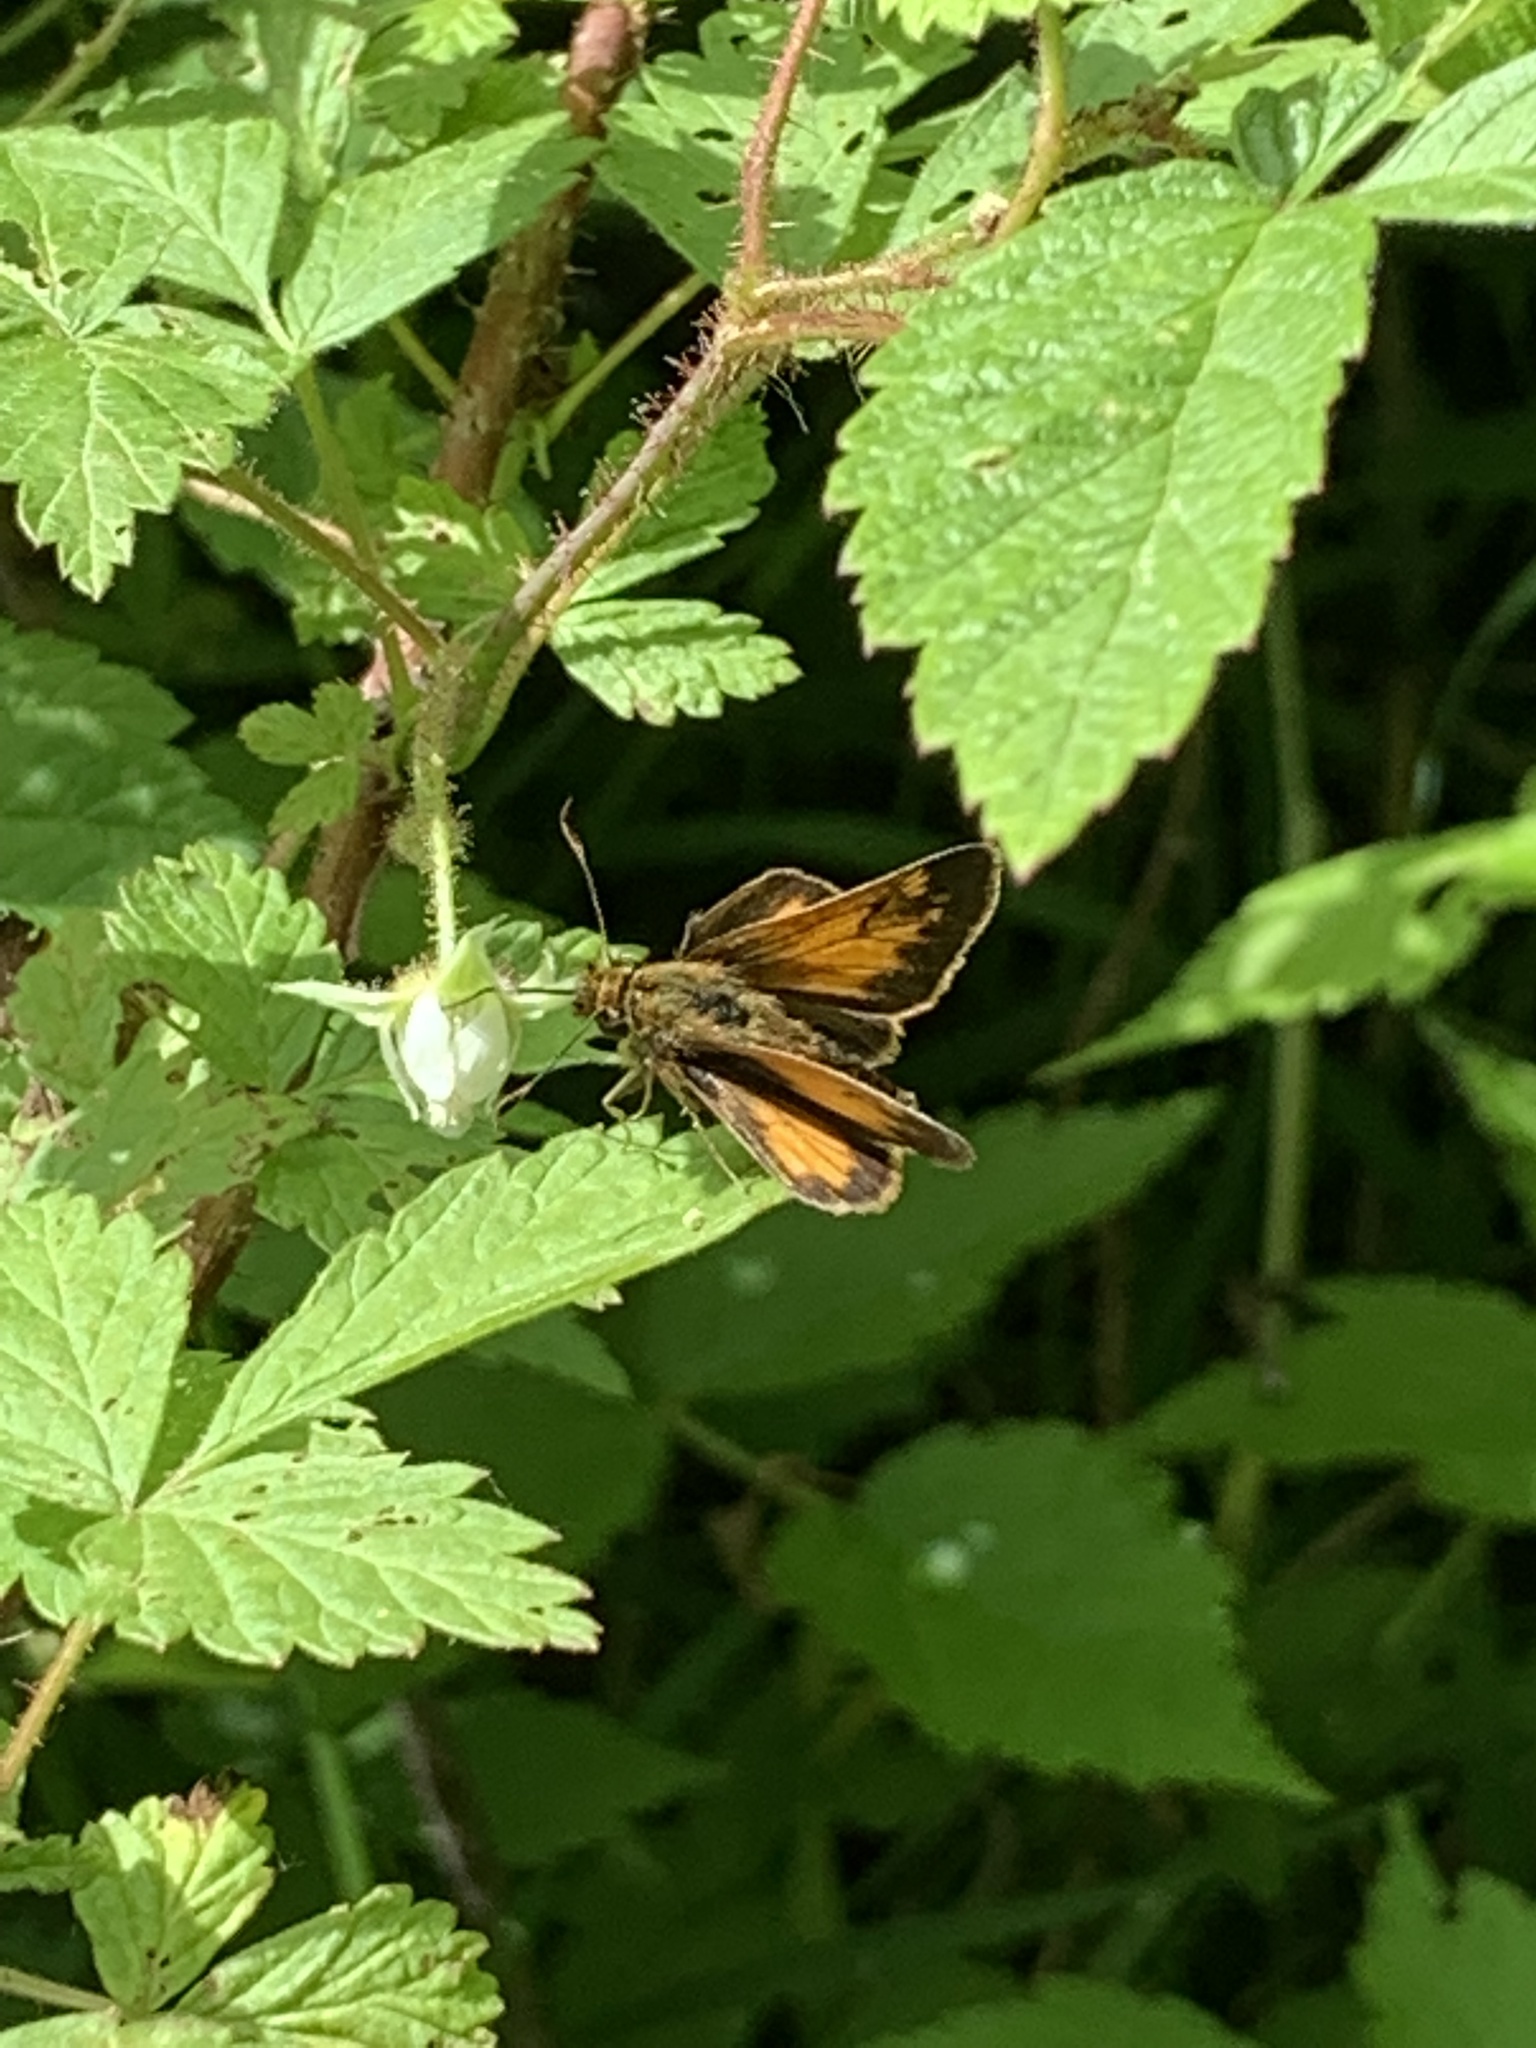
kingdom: Animalia
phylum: Arthropoda
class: Insecta
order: Lepidoptera
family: Hesperiidae
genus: Lon
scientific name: Lon hobomok
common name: Hobomok skipper
